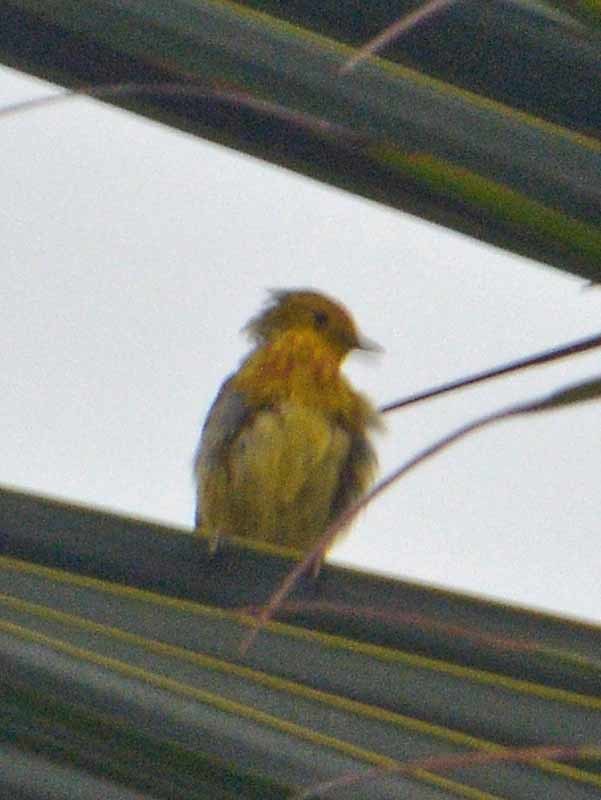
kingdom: Animalia
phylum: Chordata
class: Aves
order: Passeriformes
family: Parulidae
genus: Setophaga
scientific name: Setophaga petechia
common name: Yellow warbler
